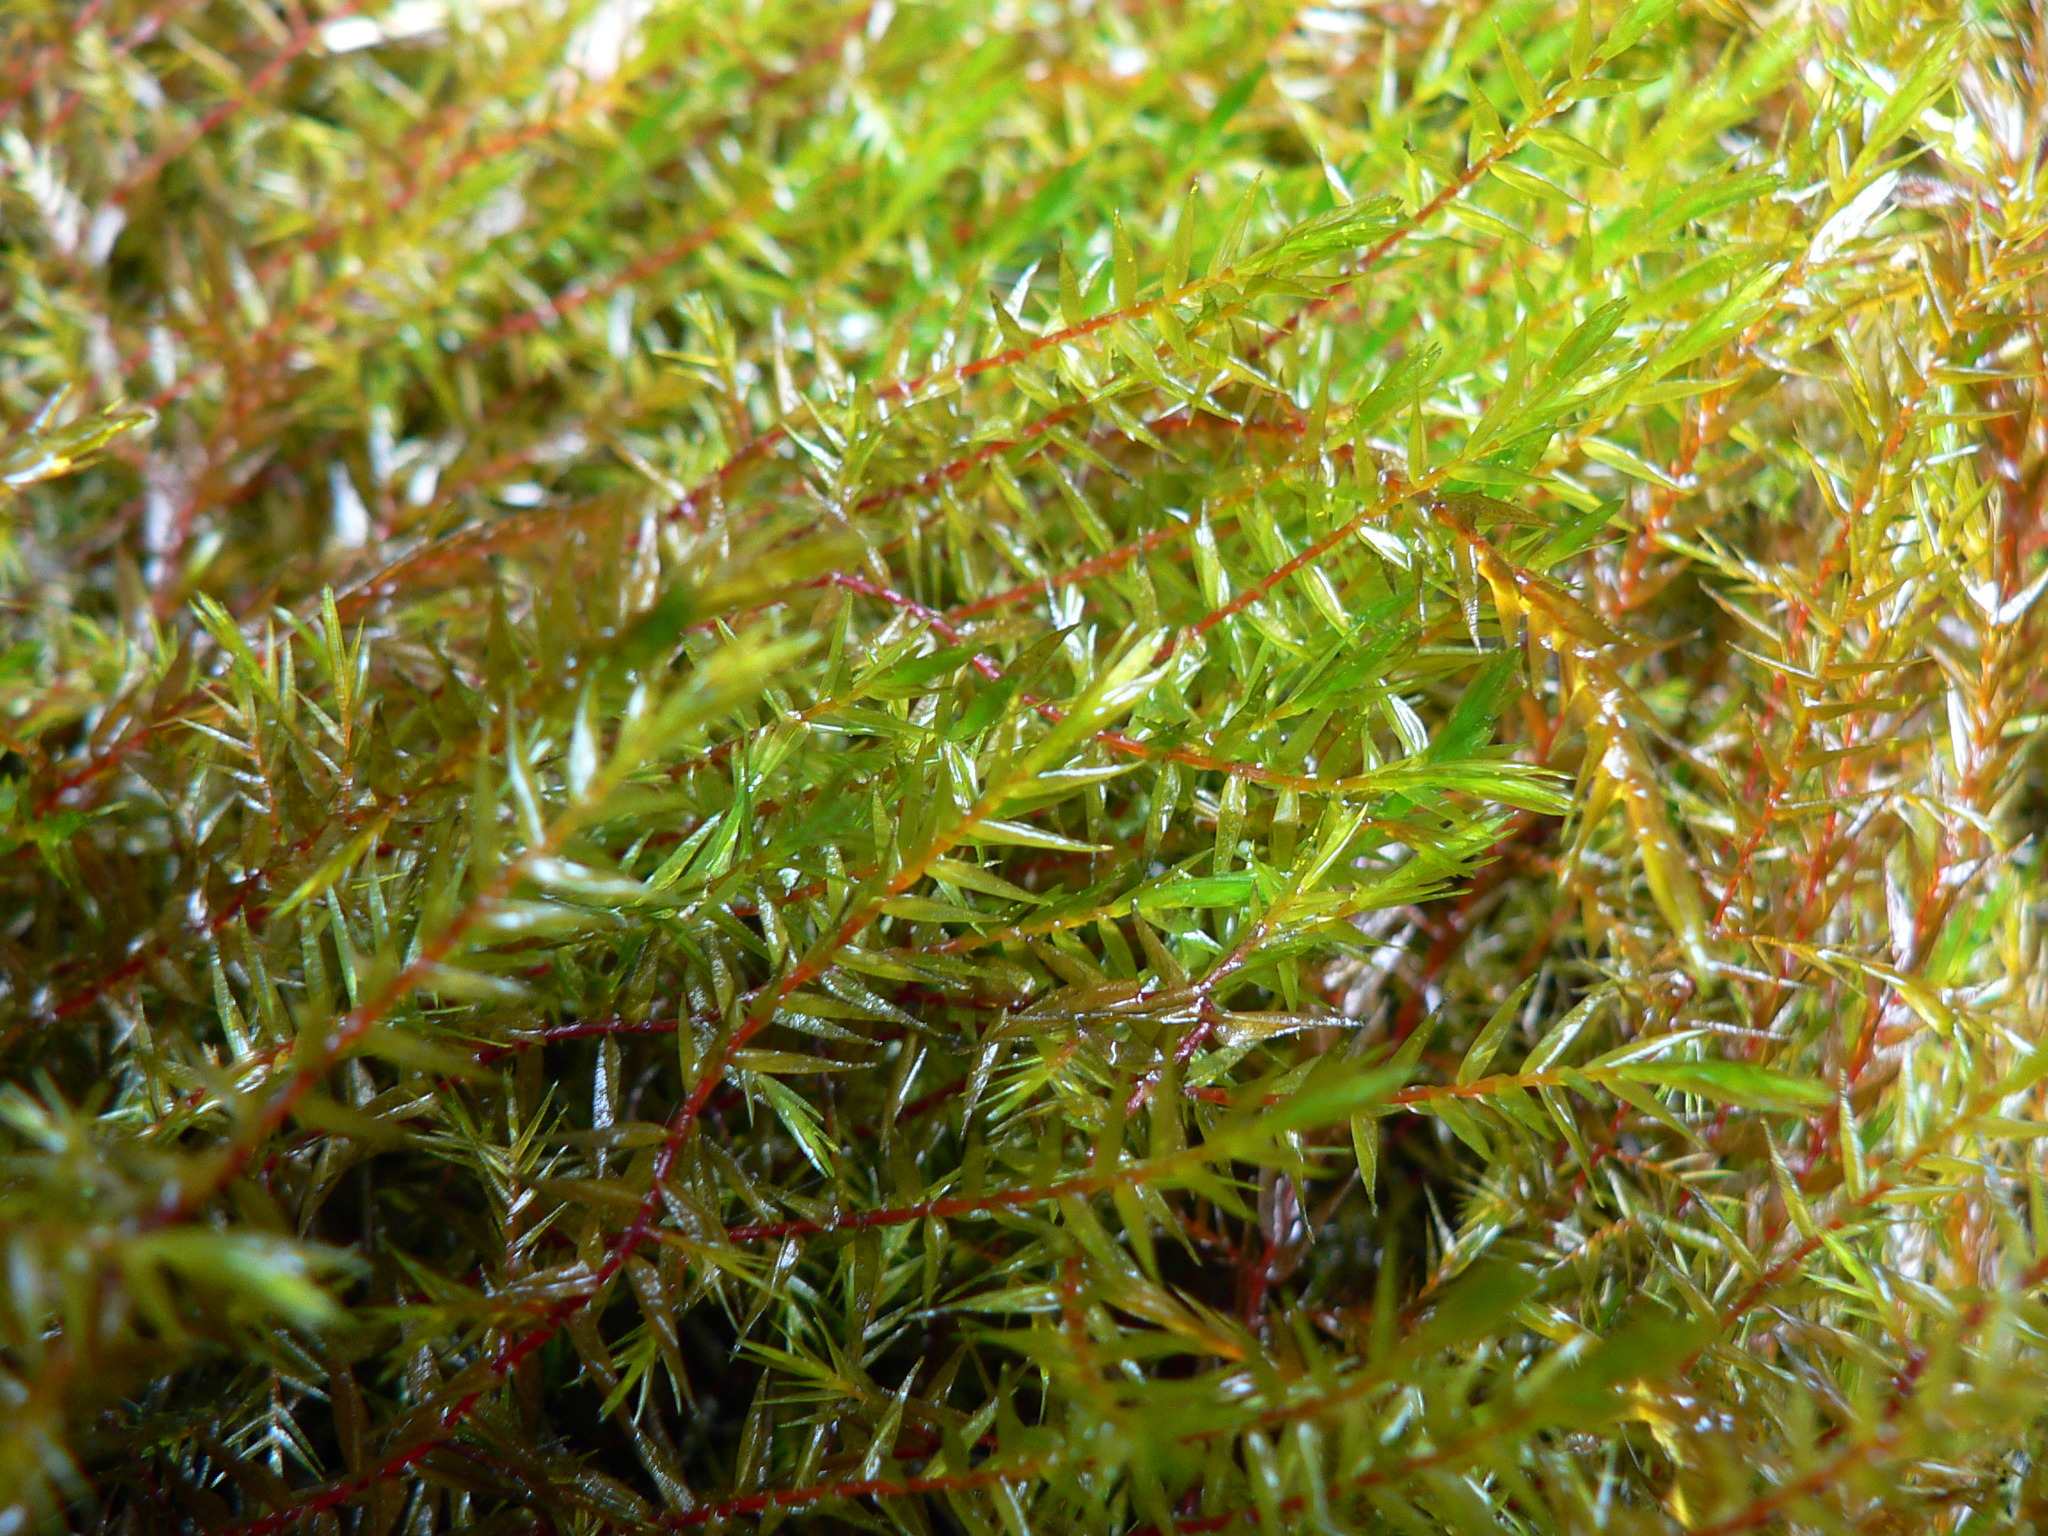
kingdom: Plantae
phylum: Bryophyta
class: Bryopsida
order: Hypnales
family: Fontinalaceae
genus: Fontinalis
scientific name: Fontinalis antipyretica
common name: Greater water-moss
